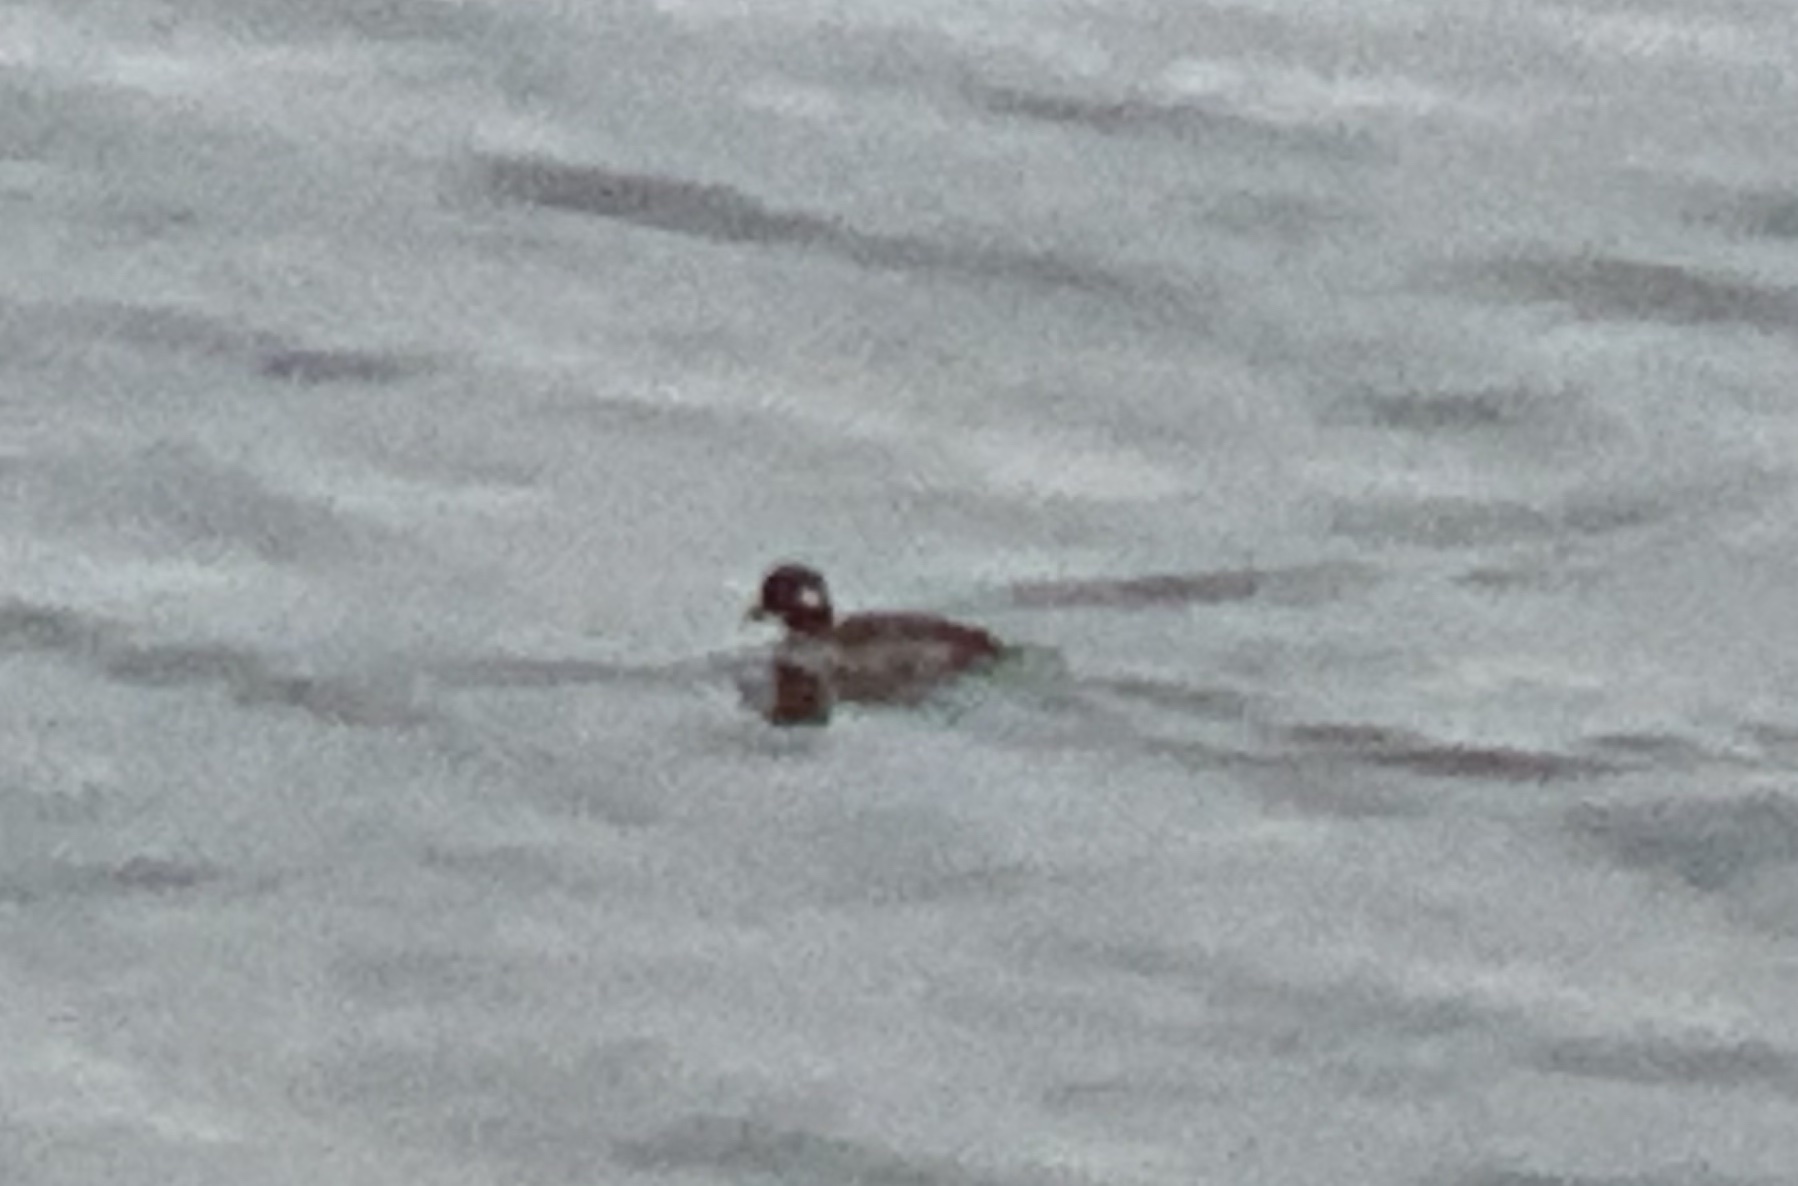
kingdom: Animalia
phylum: Chordata
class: Aves
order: Anseriformes
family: Anatidae
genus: Bucephala
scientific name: Bucephala albeola
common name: Bufflehead
